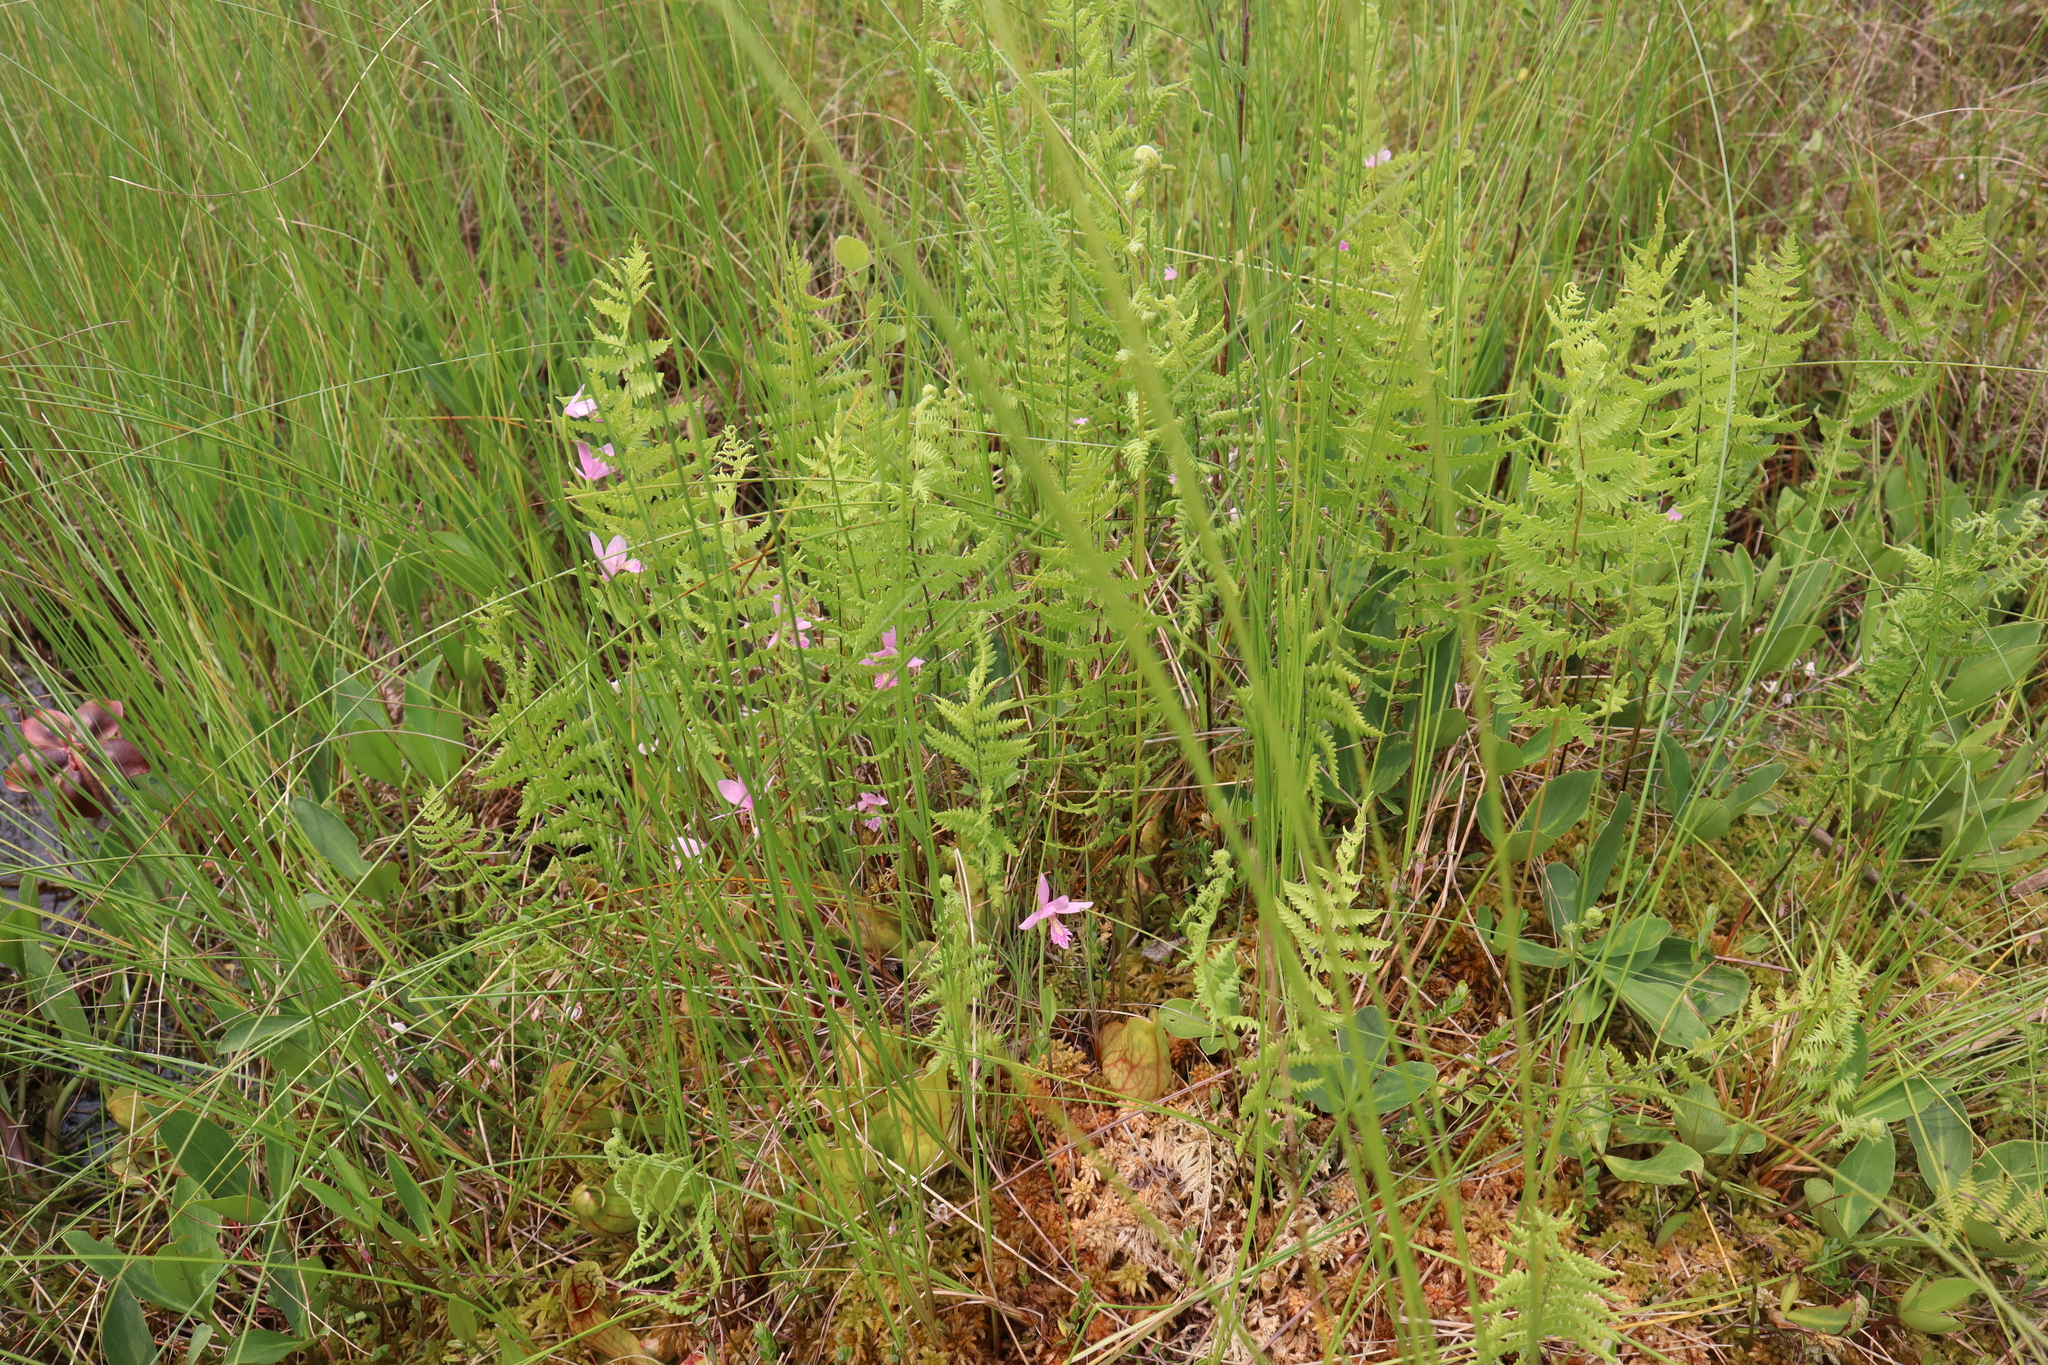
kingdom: Plantae
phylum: Tracheophyta
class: Liliopsida
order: Asparagales
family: Orchidaceae
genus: Pogonia
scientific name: Pogonia ophioglossoides
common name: Rose pogonia
